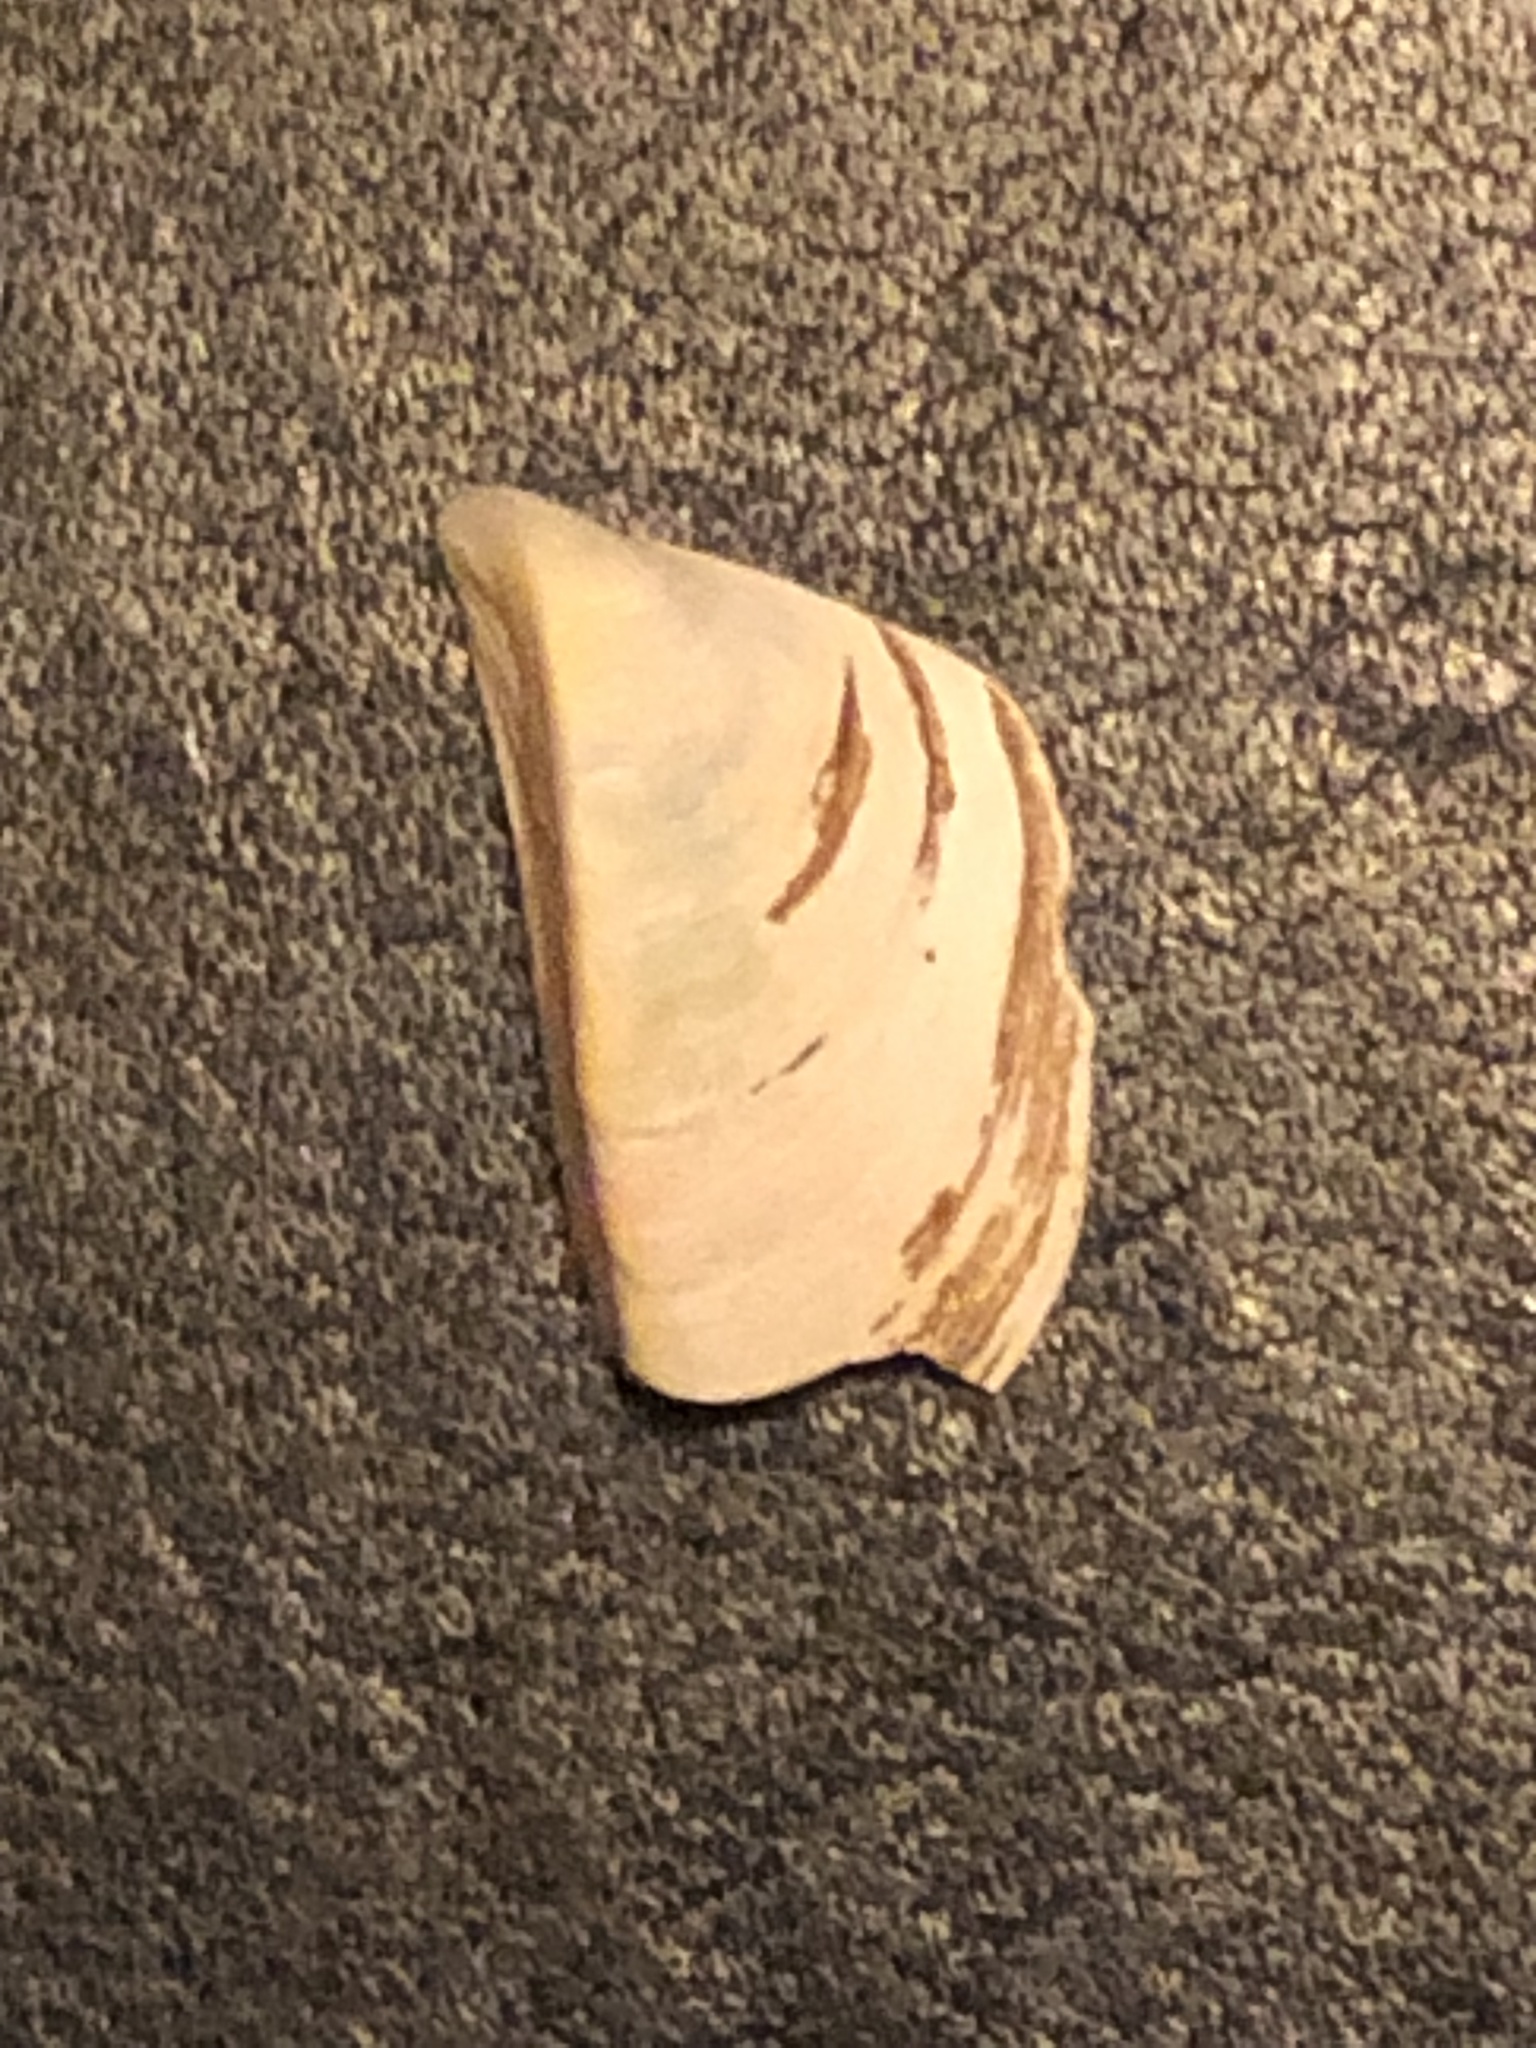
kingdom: Animalia
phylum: Mollusca
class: Bivalvia
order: Myida
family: Dreissenidae
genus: Dreissena
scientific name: Dreissena polymorpha
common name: Zebra mussel
